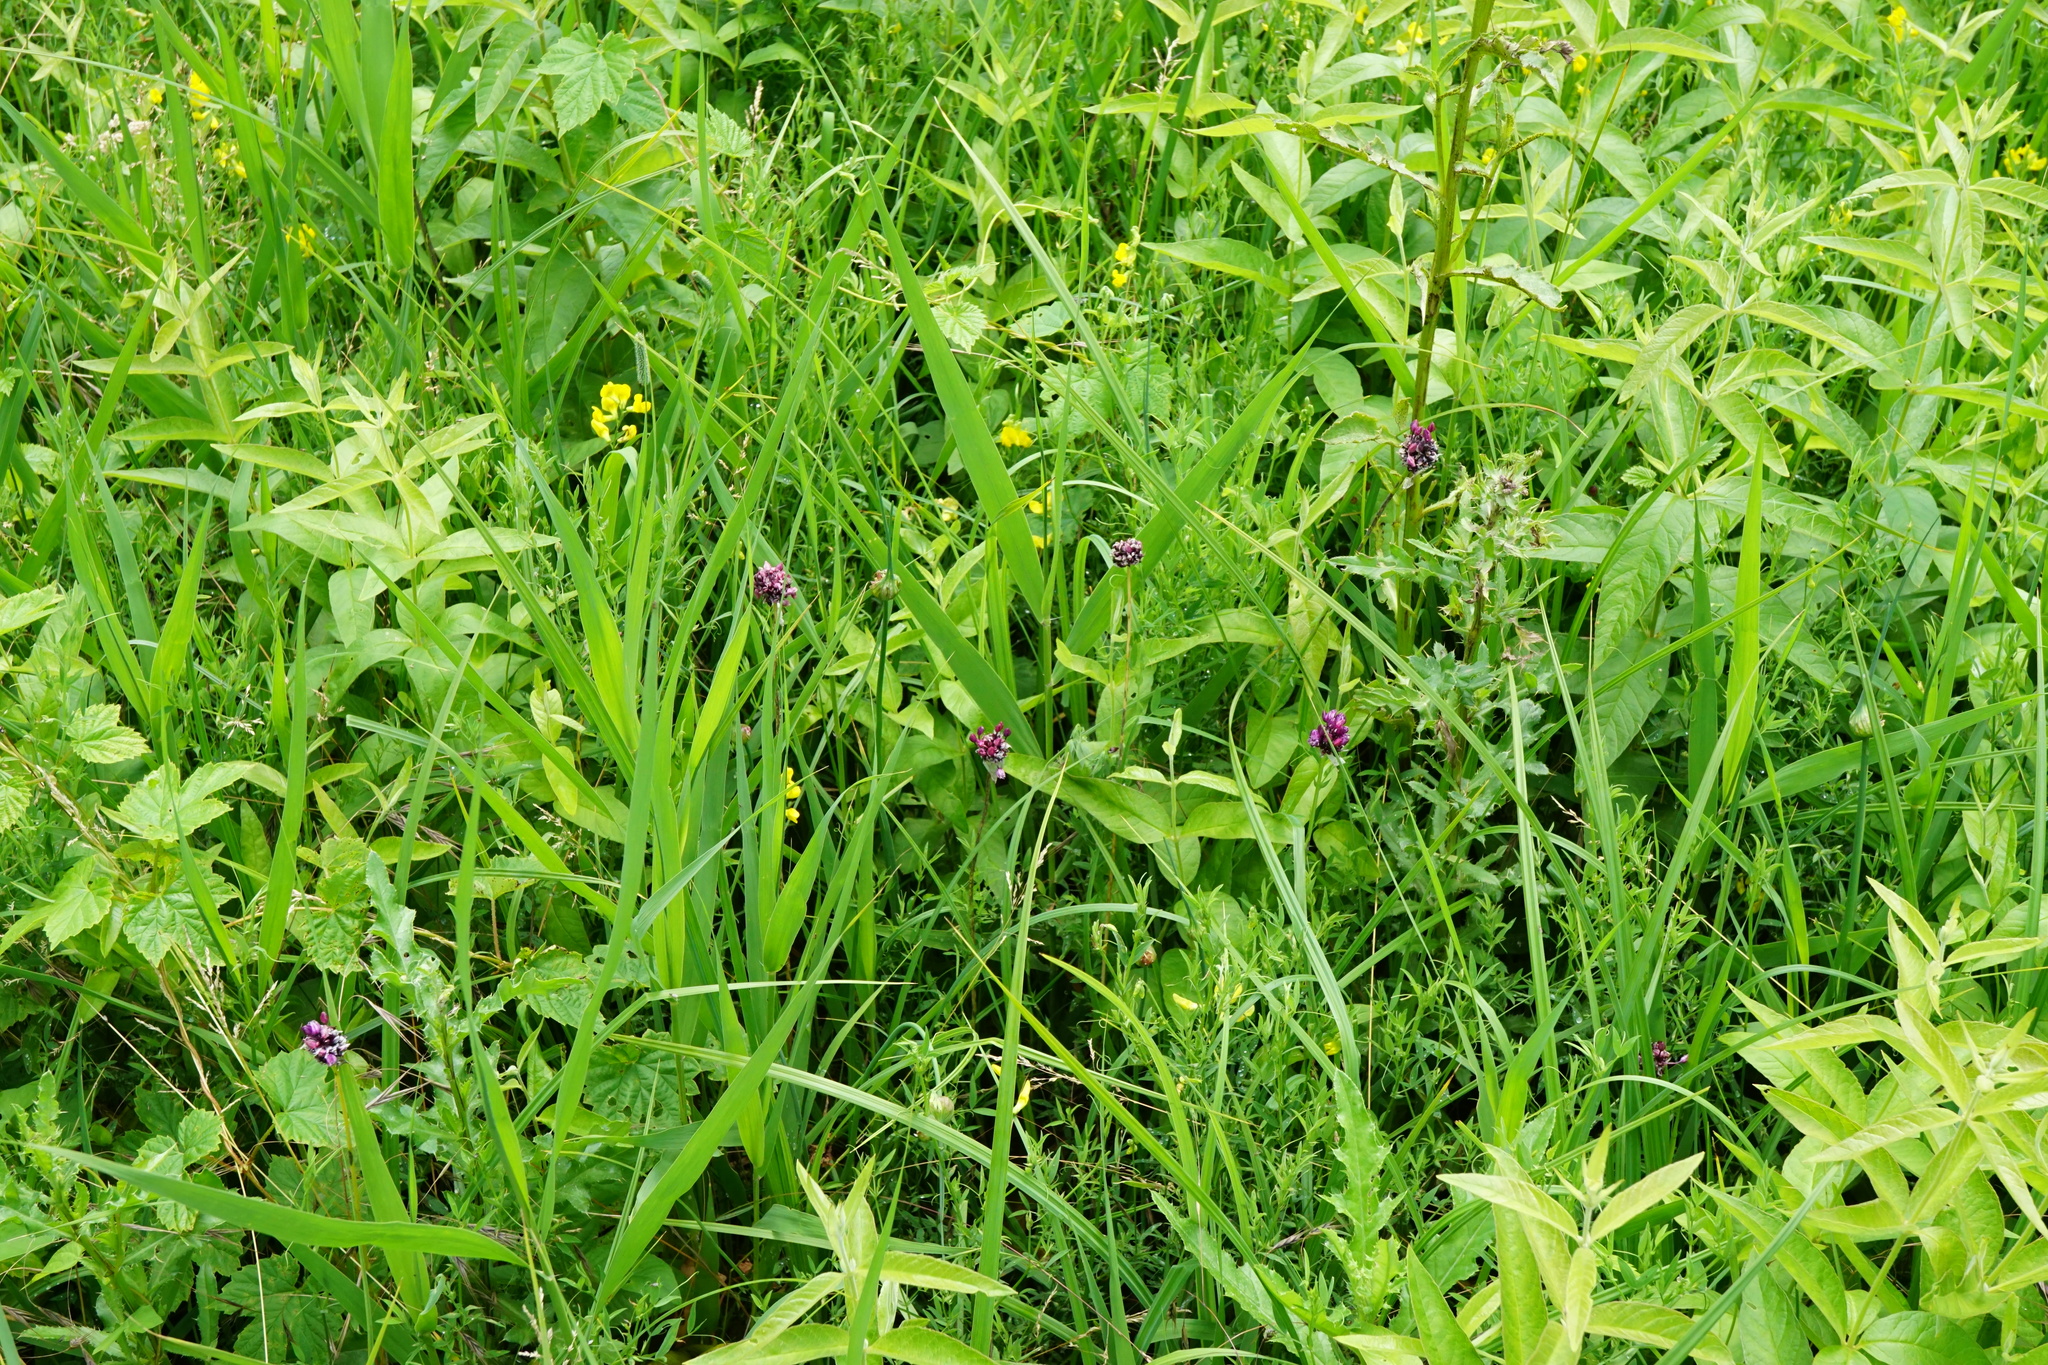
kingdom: Plantae
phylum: Tracheophyta
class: Liliopsida
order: Asparagales
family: Amaryllidaceae
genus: Allium
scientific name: Allium scorodoprasum
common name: Sand leek
